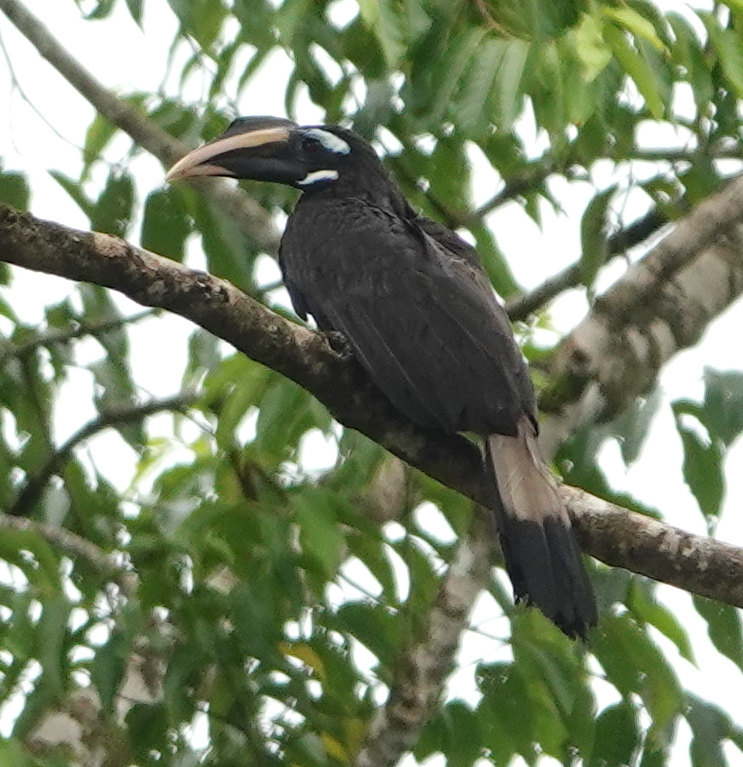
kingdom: Animalia
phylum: Chordata
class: Aves
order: Bucerotiformes
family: Bucerotidae
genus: Anorrhinus
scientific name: Anorrhinus galeritus
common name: Bushy-crested hornbill
